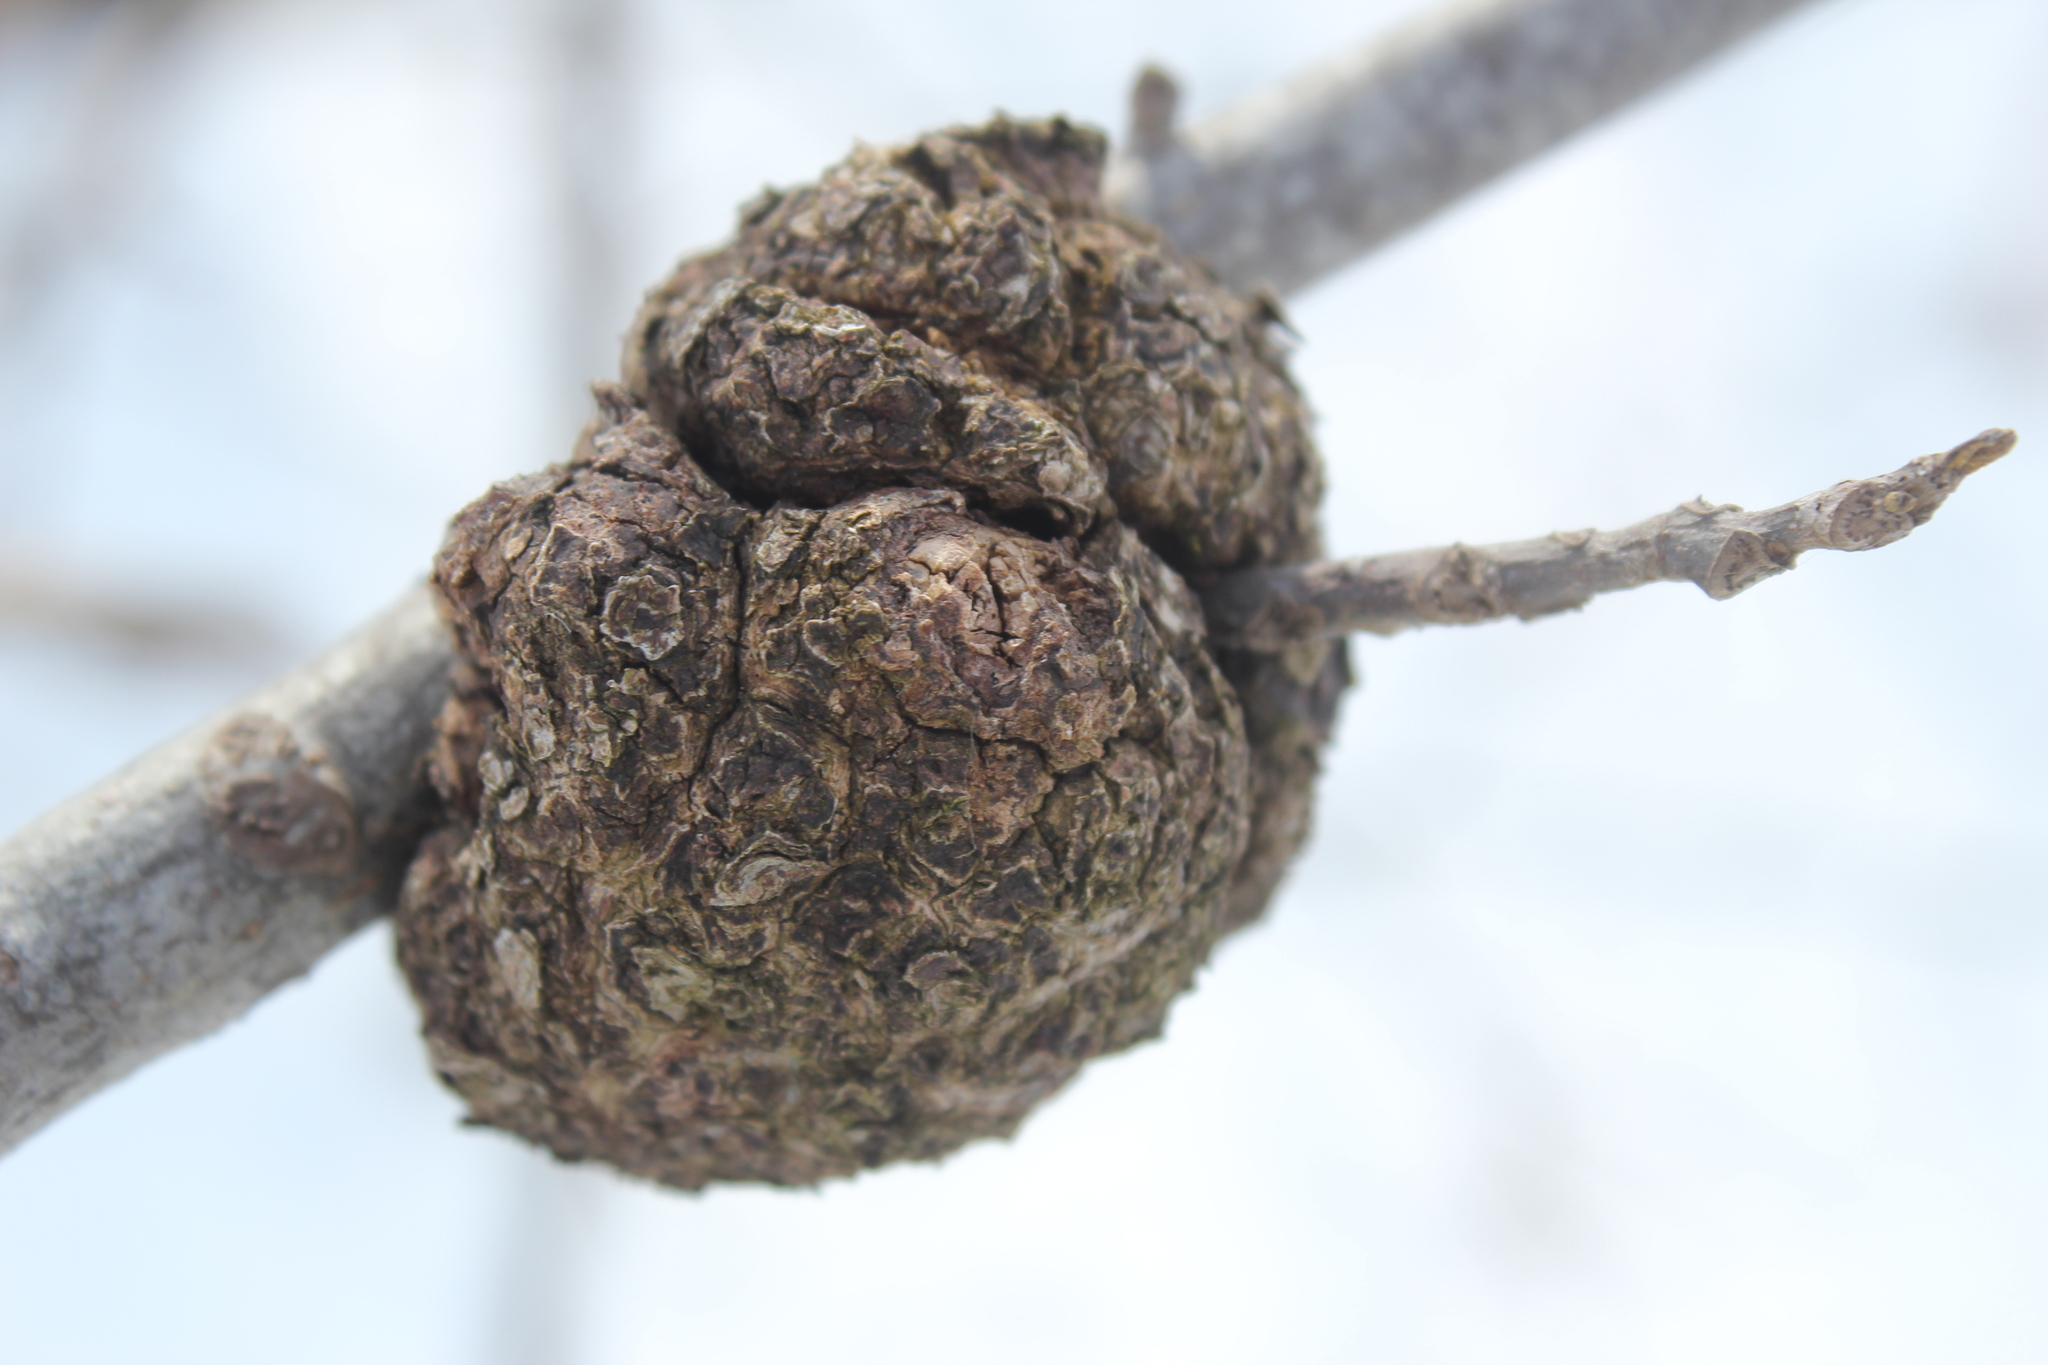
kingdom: Fungi
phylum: Ascomycota
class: Sordariomycetes
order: Diaporthales
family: Diaporthaceae
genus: Diaporthe
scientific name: Diaporthe
